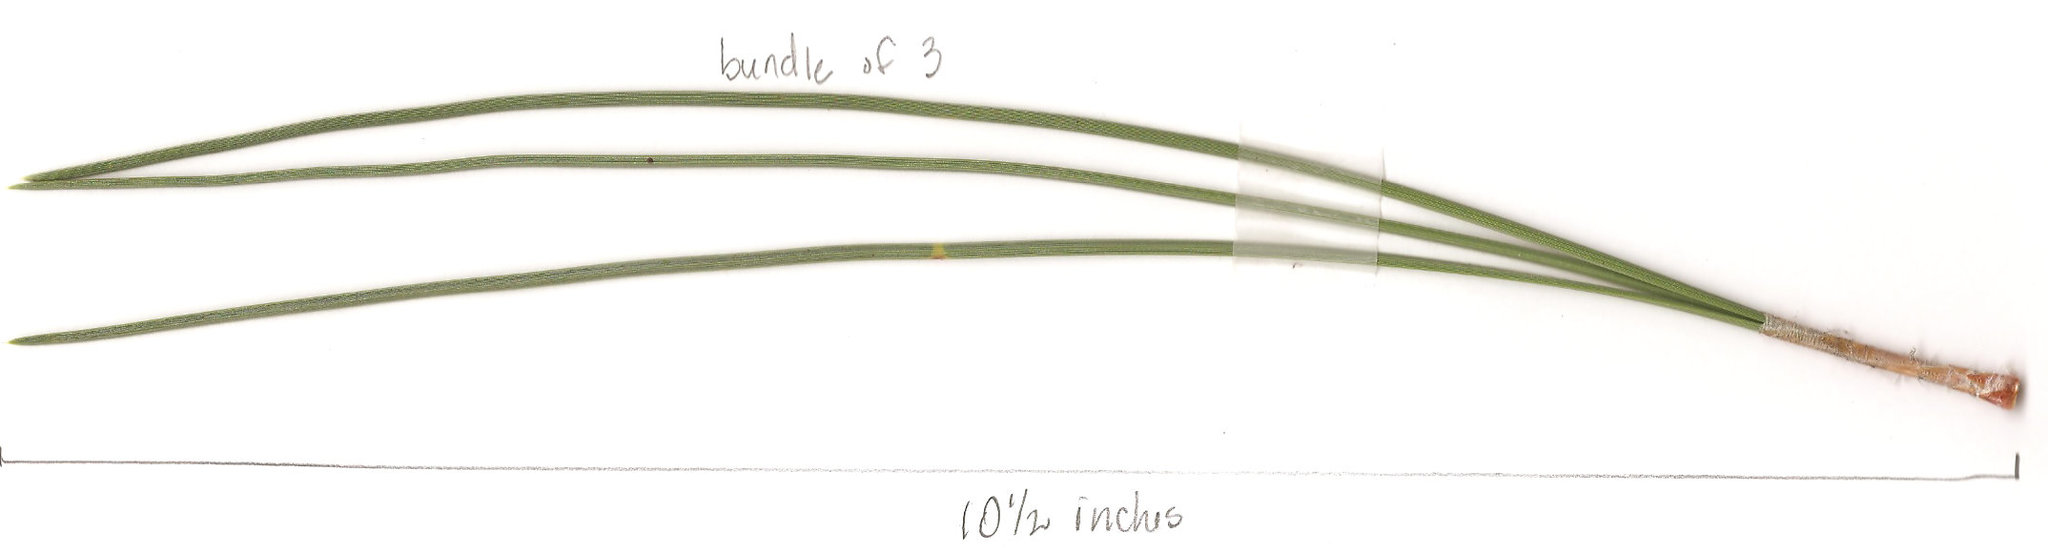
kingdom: Plantae
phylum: Tracheophyta
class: Pinopsida
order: Pinales
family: Pinaceae
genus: Pinus
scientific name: Pinus coulteri
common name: Coulter pine
